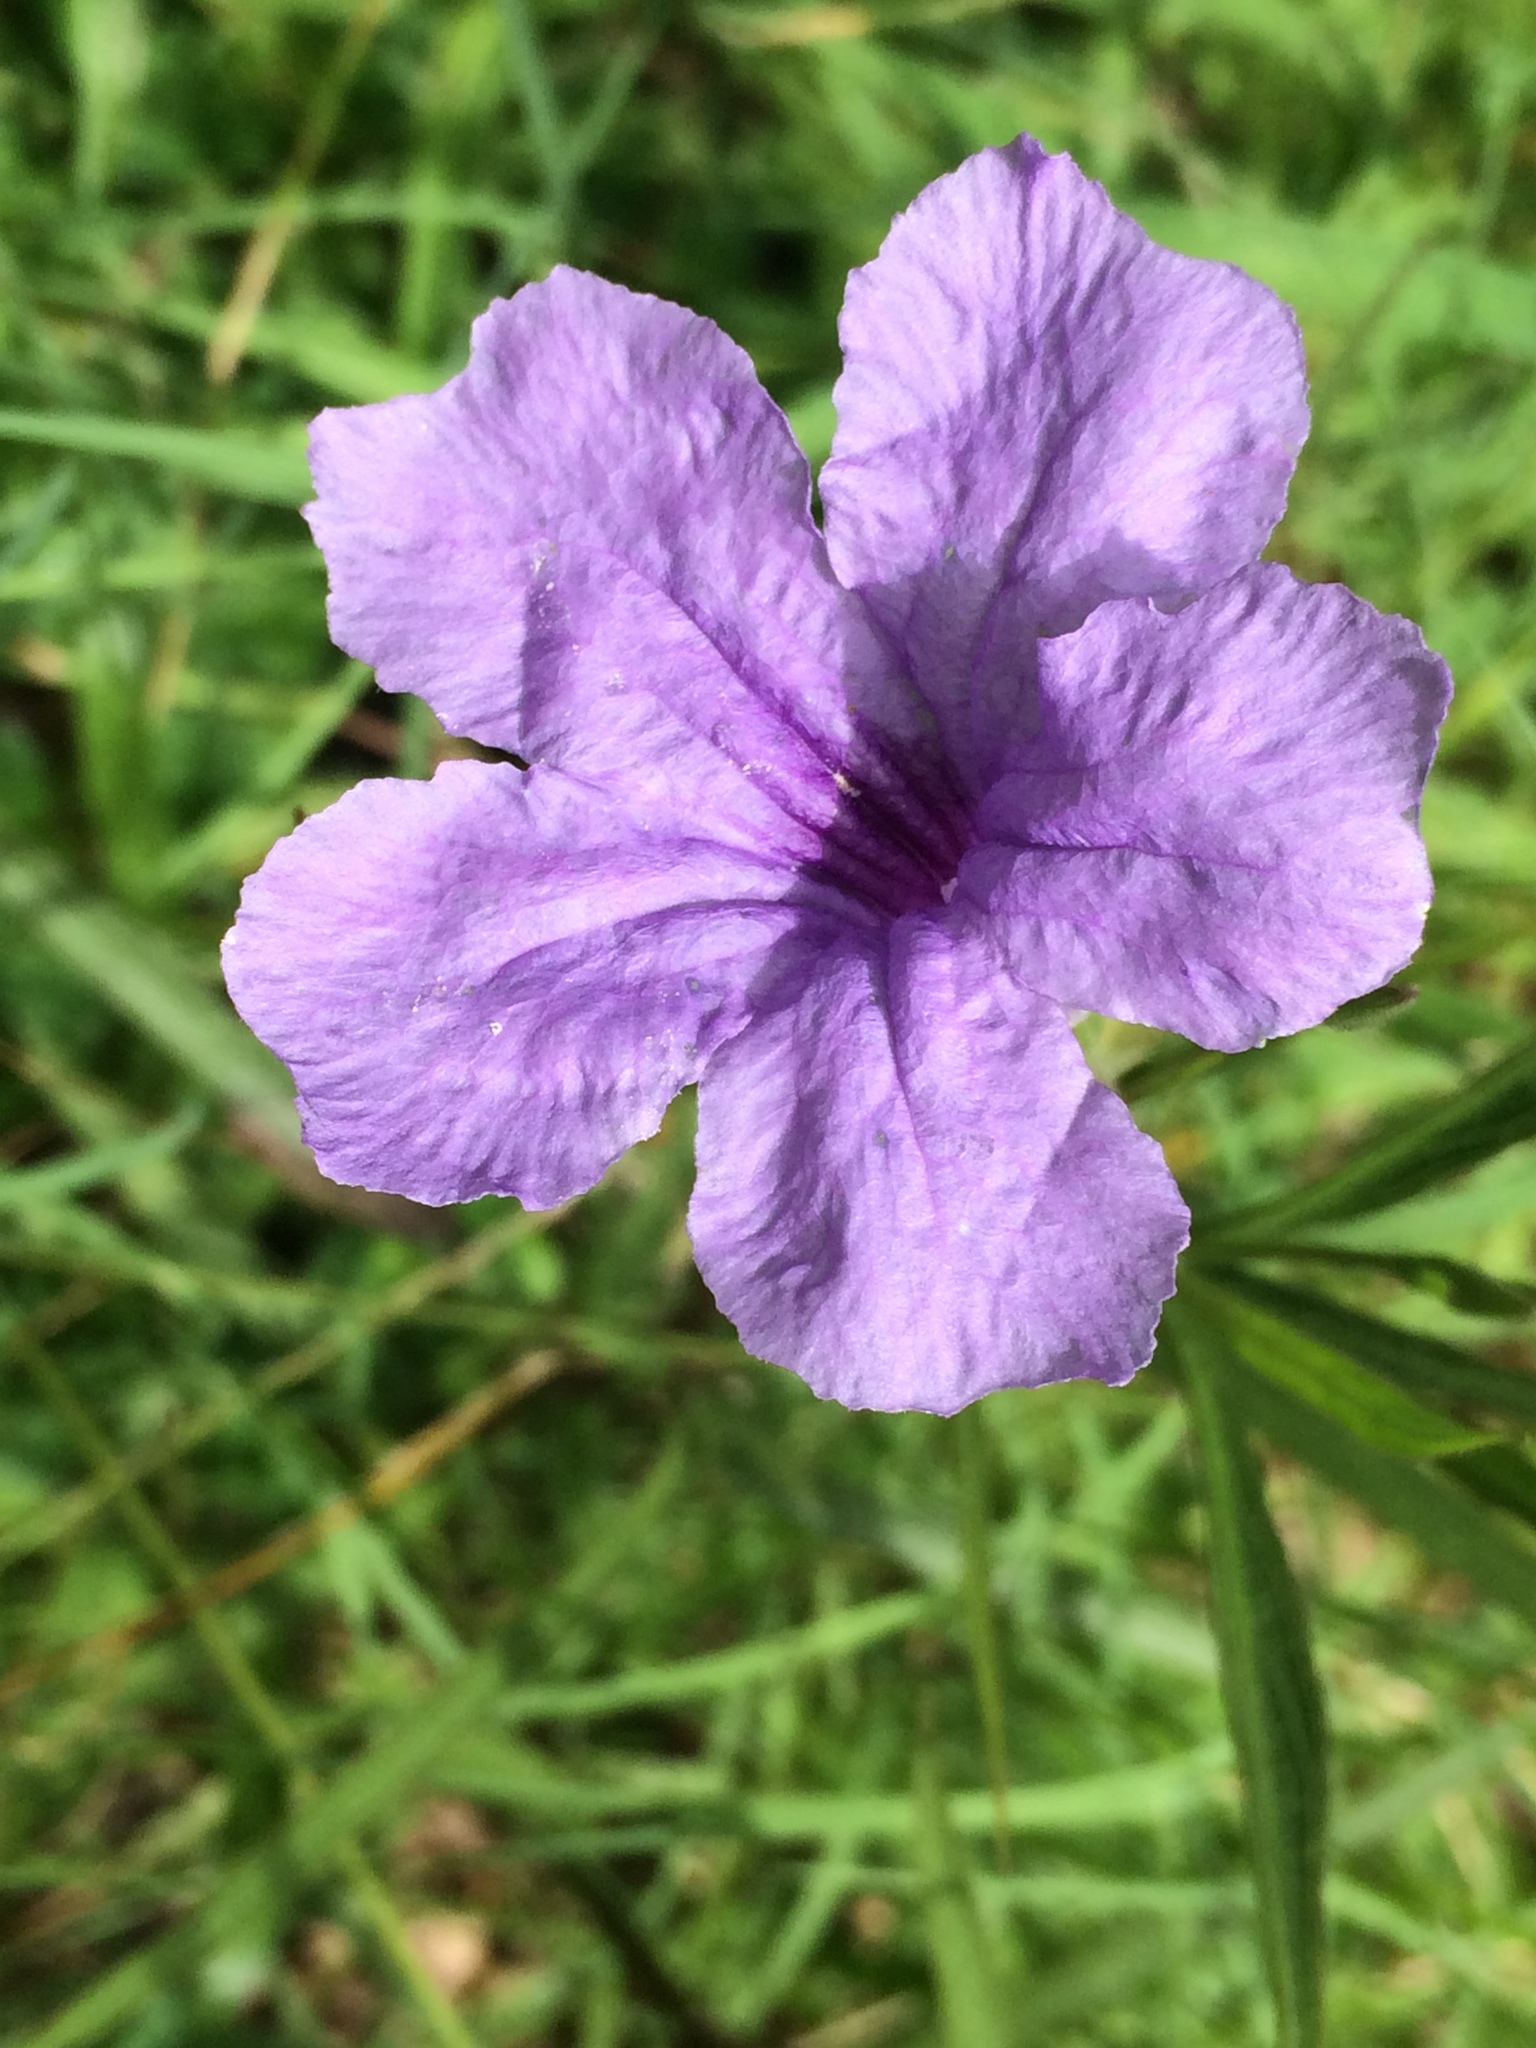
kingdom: Plantae
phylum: Tracheophyta
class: Magnoliopsida
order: Lamiales
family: Acanthaceae
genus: Ruellia
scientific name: Ruellia simplex
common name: Softseed wild petunia
